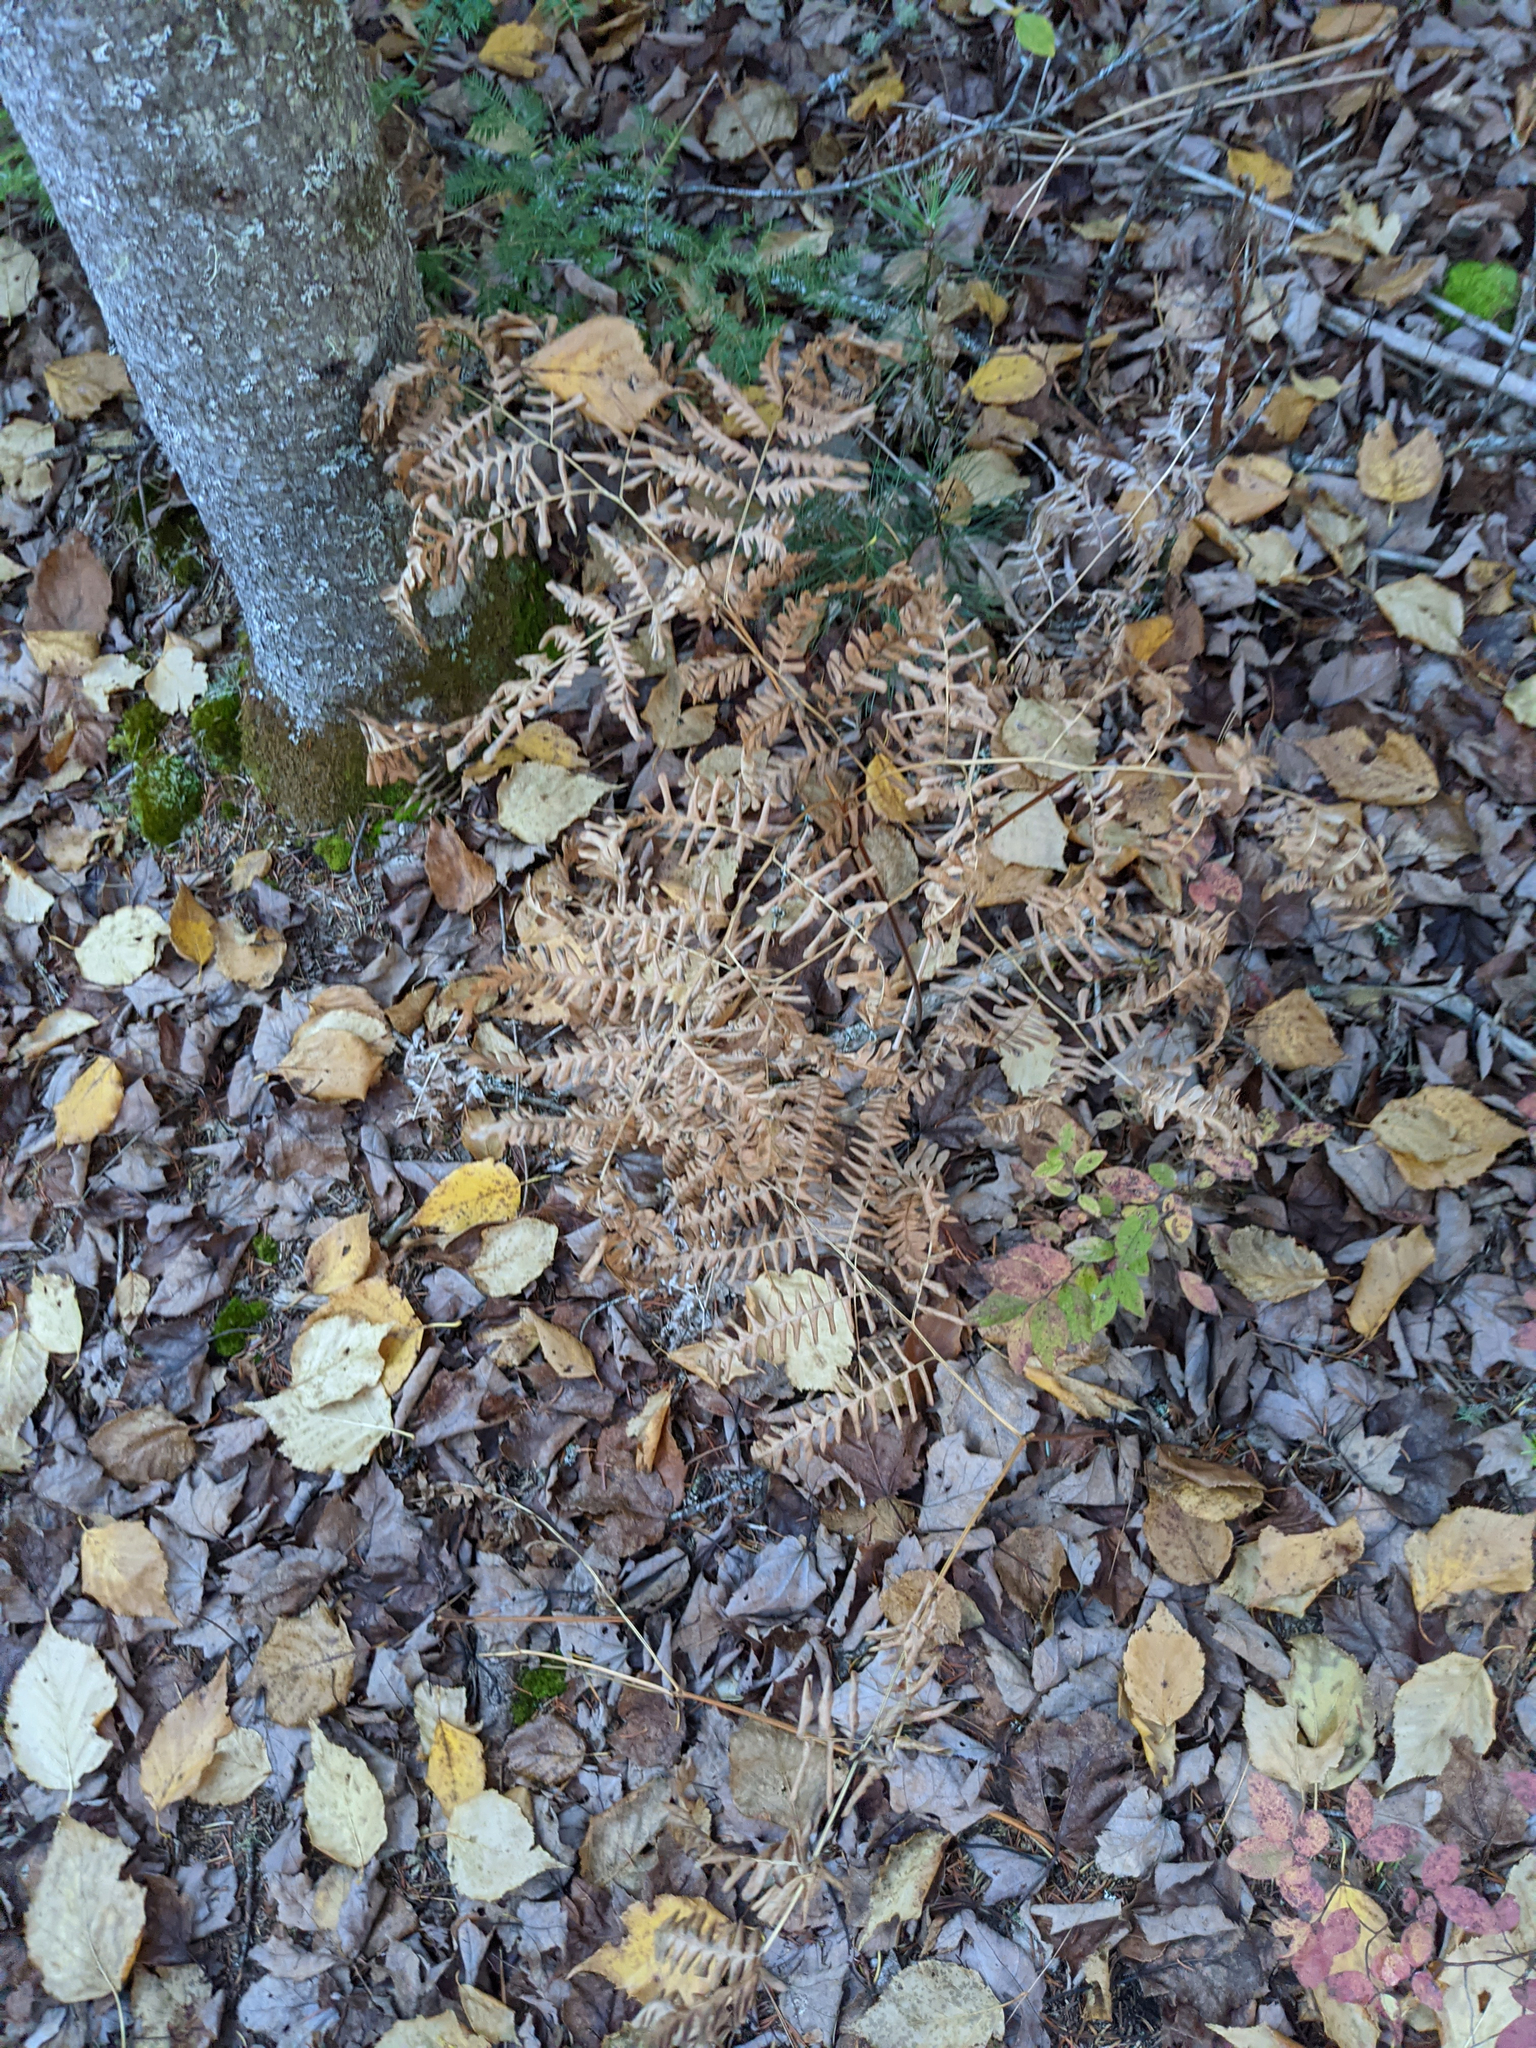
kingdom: Plantae
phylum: Tracheophyta
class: Polypodiopsida
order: Polypodiales
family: Dennstaedtiaceae
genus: Pteridium
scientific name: Pteridium aquilinum
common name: Bracken
